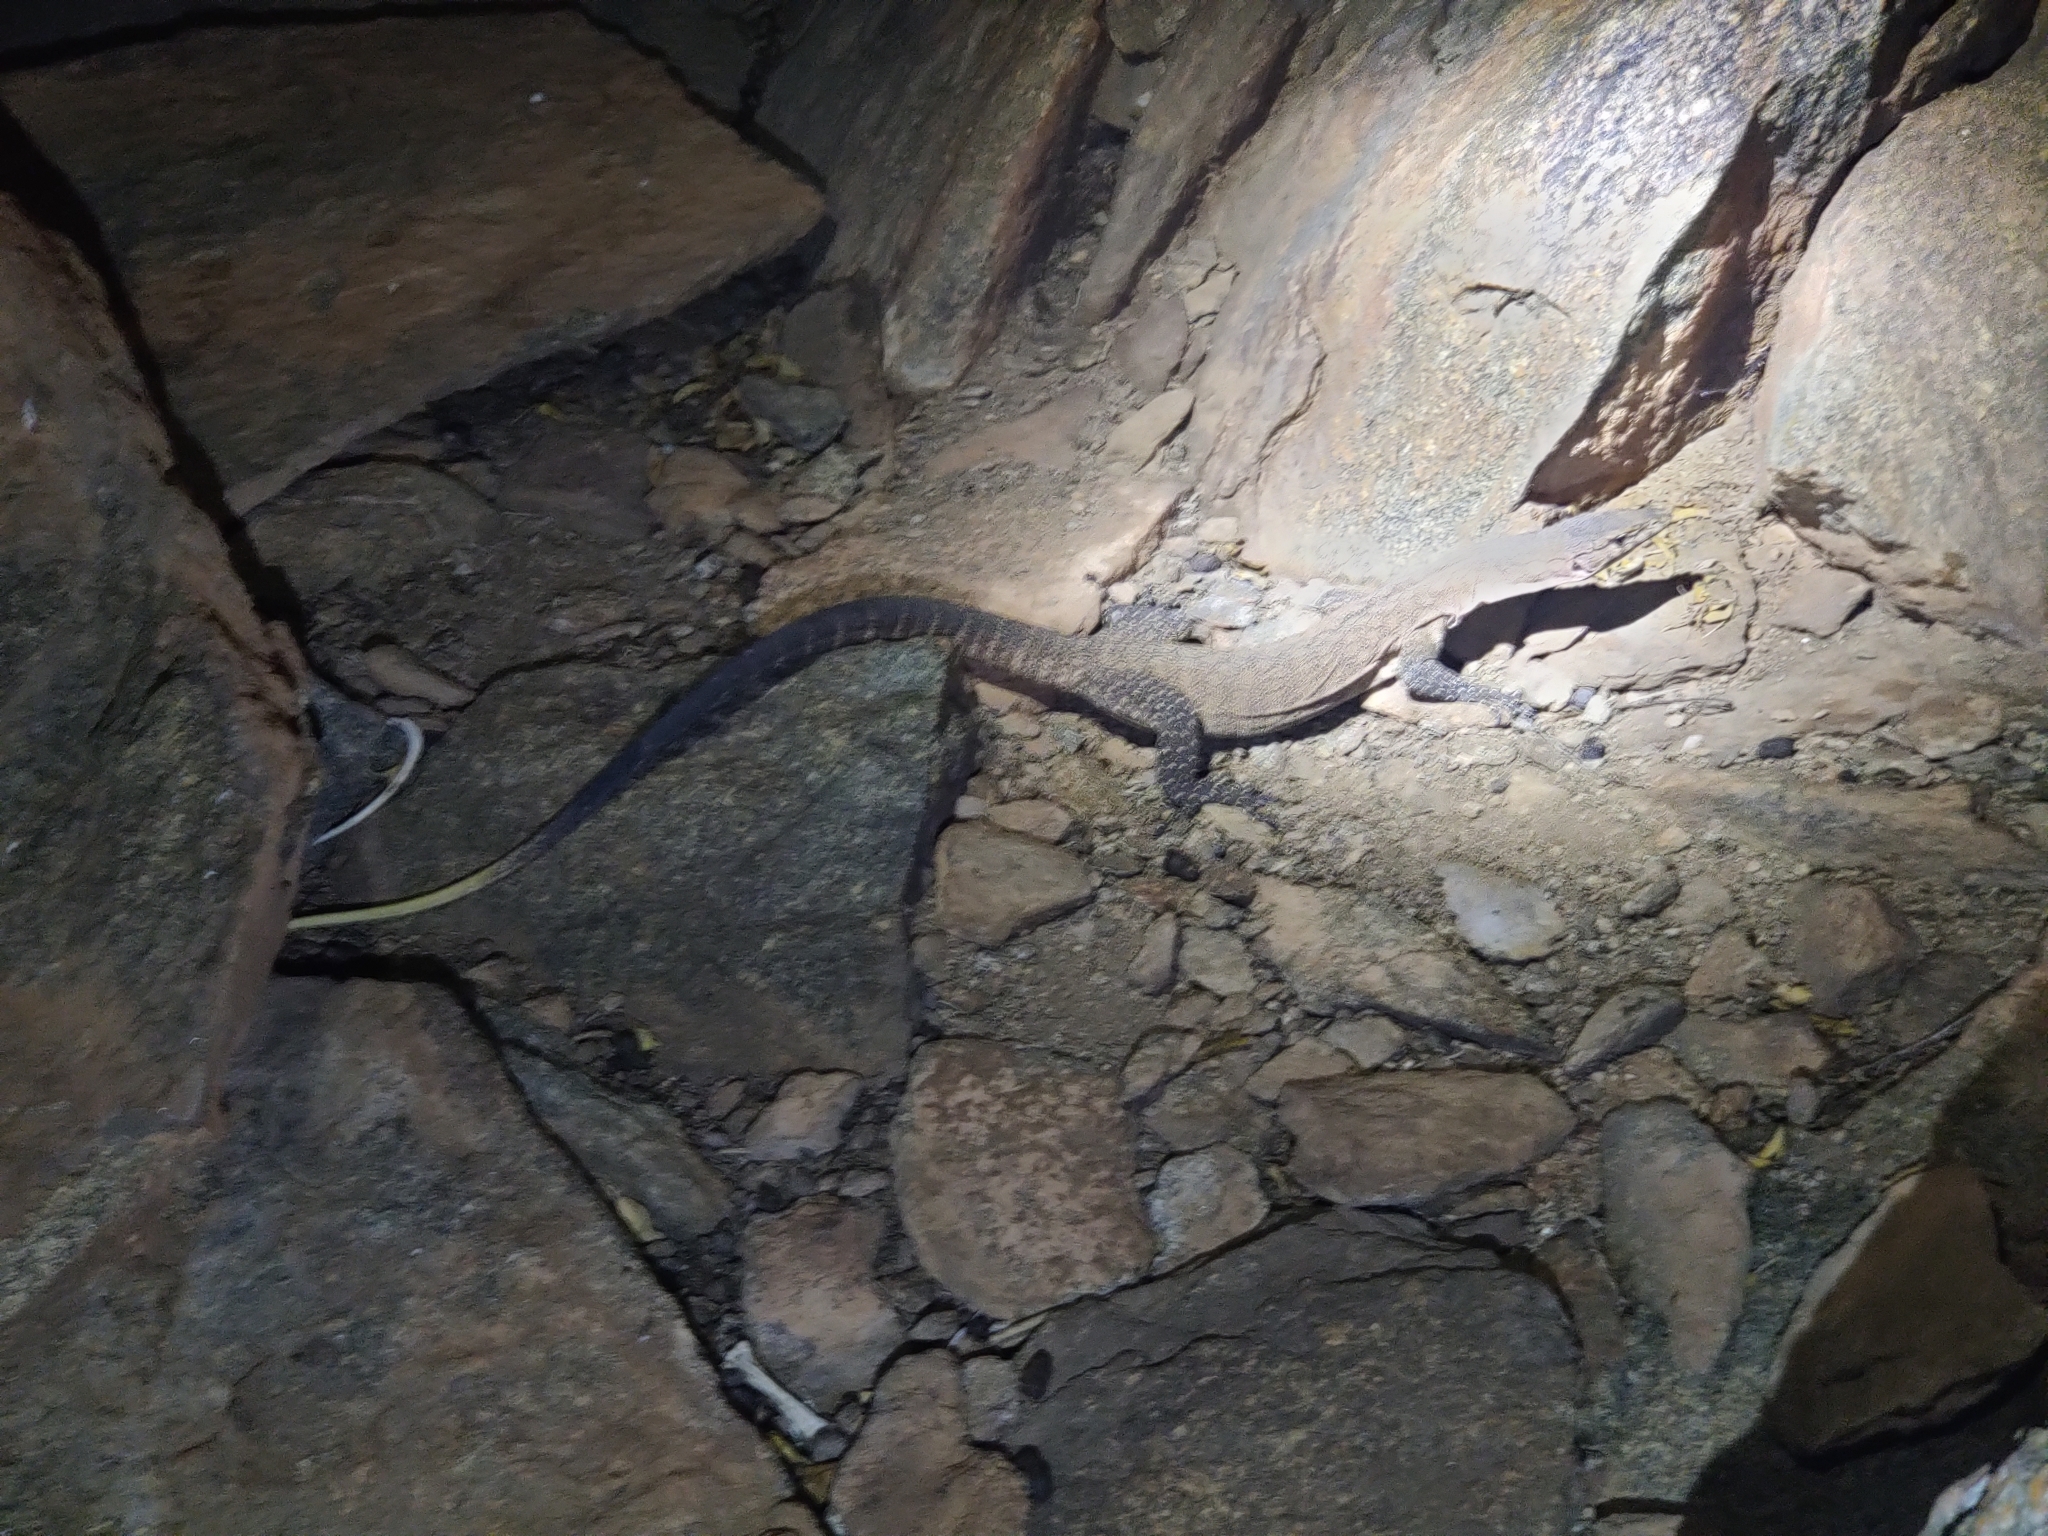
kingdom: Animalia
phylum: Chordata
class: Squamata
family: Varanidae
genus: Varanus
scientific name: Varanus glebopalma
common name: Black-palmed rock monitor
